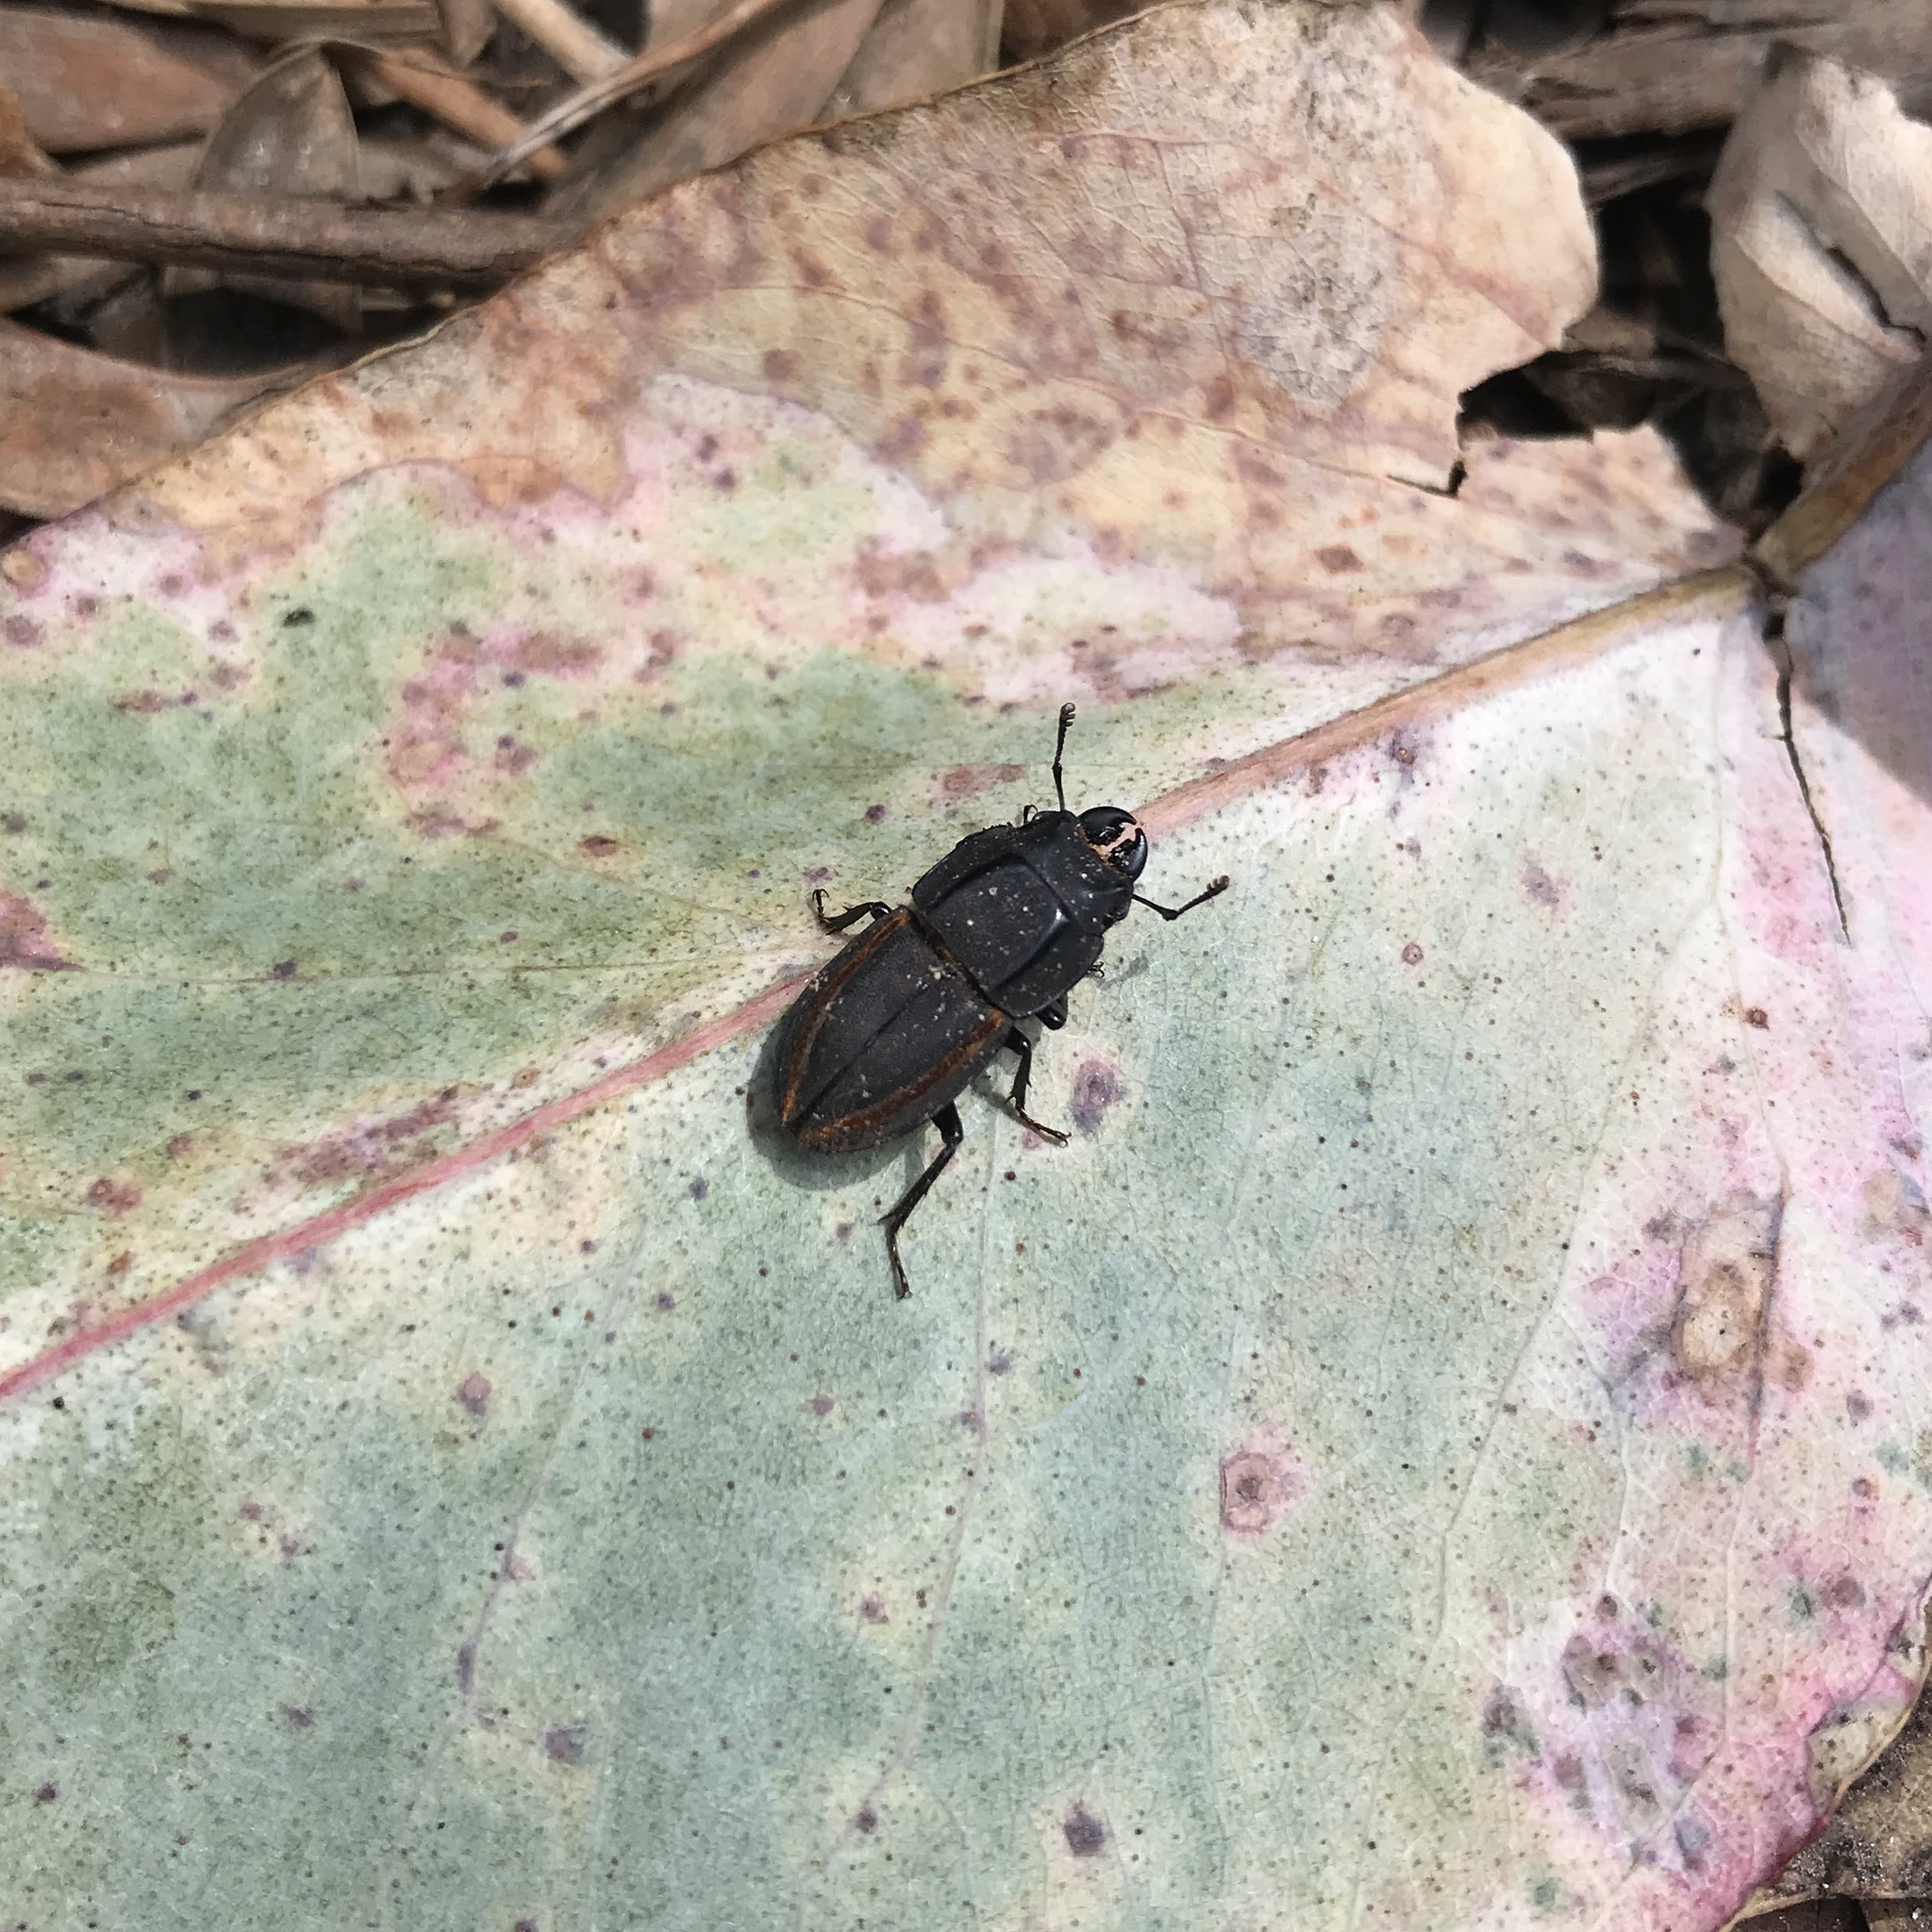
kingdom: Animalia
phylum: Arthropoda
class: Insecta
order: Coleoptera
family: Lucanidae
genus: Erichius
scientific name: Erichius vittatus
